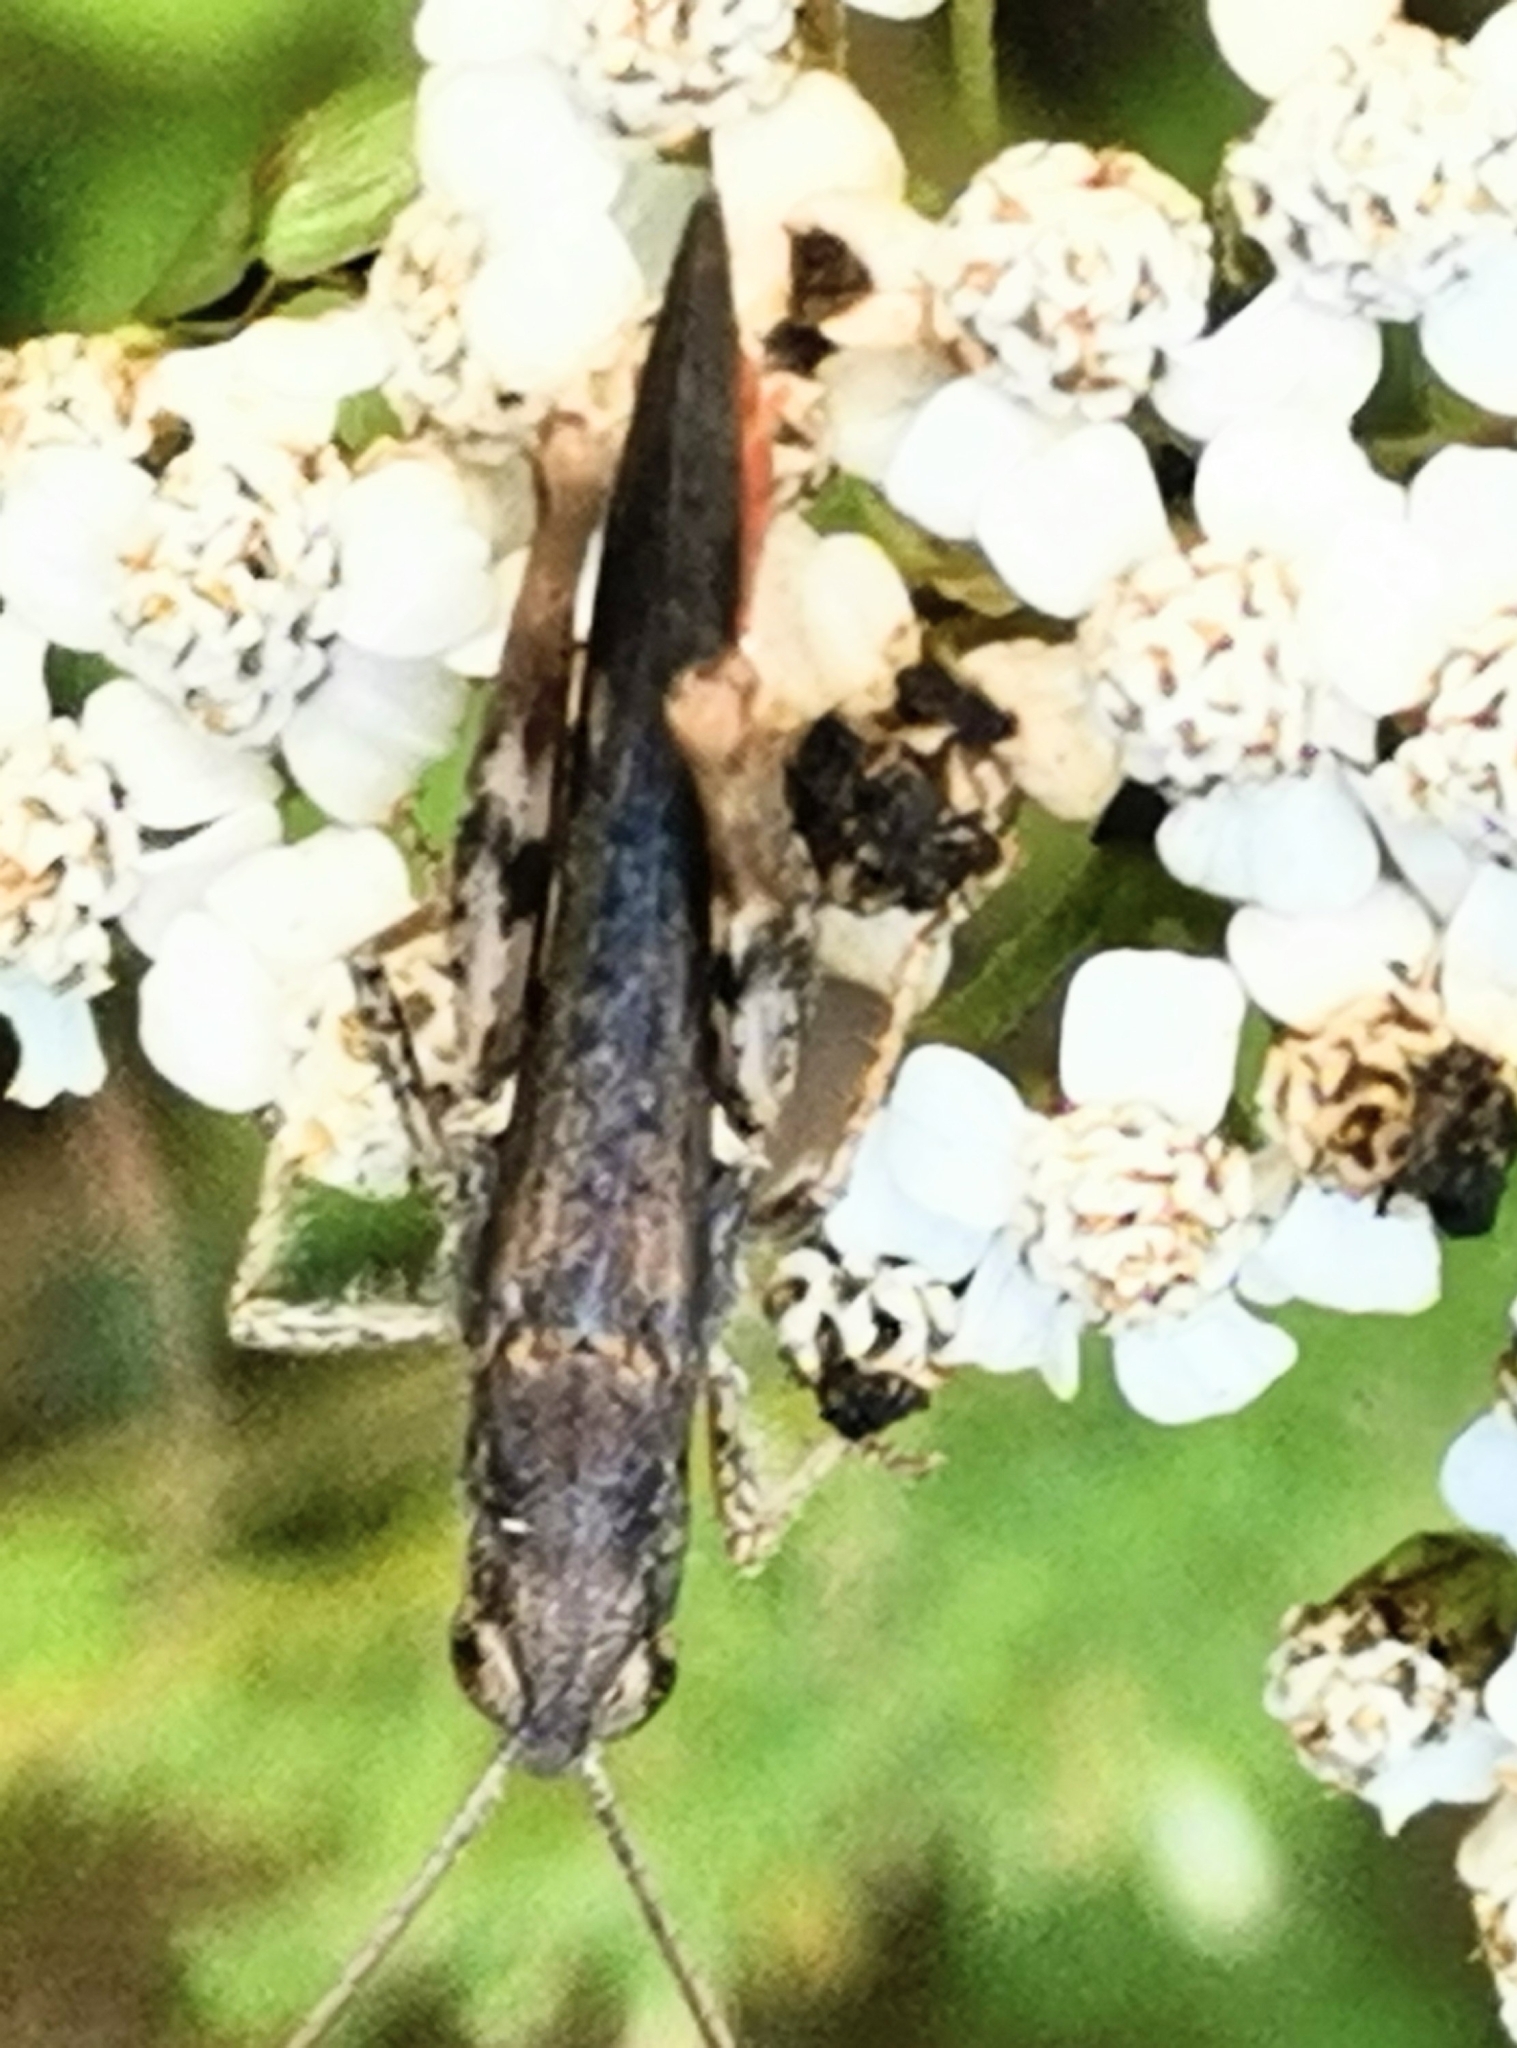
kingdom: Animalia
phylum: Arthropoda
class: Insecta
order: Orthoptera
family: Acrididae
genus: Chorthippus
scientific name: Chorthippus brunneus
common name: Field grasshopper
